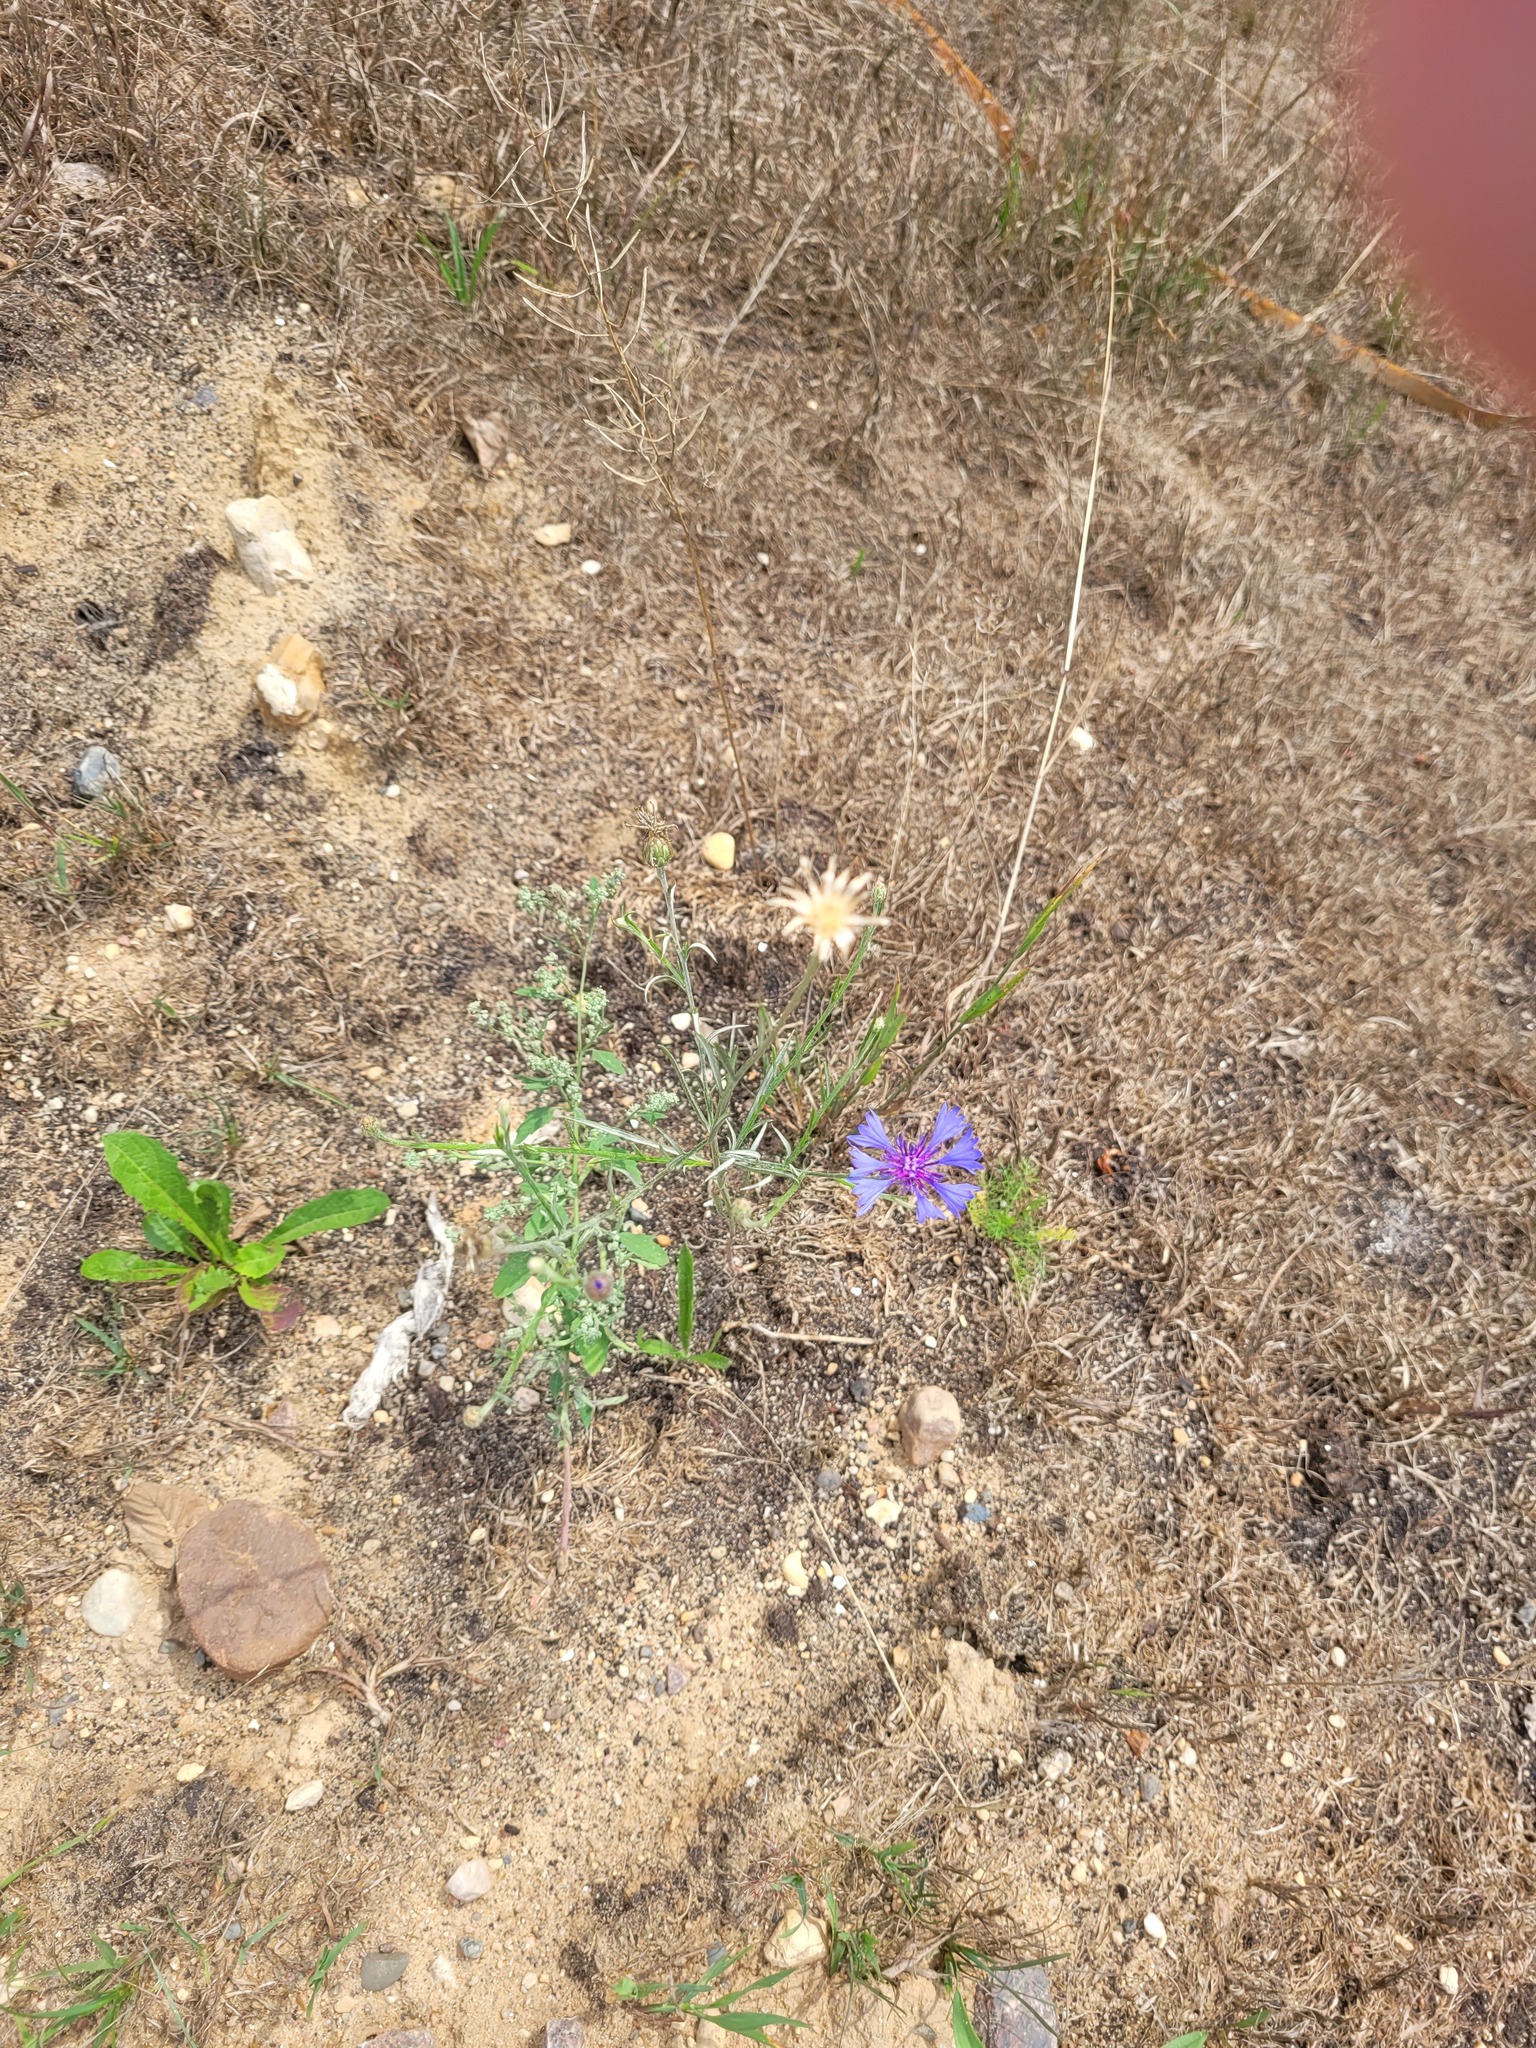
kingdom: Plantae
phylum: Tracheophyta
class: Magnoliopsida
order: Asterales
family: Asteraceae
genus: Centaurea
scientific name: Centaurea cyanus
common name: Cornflower
